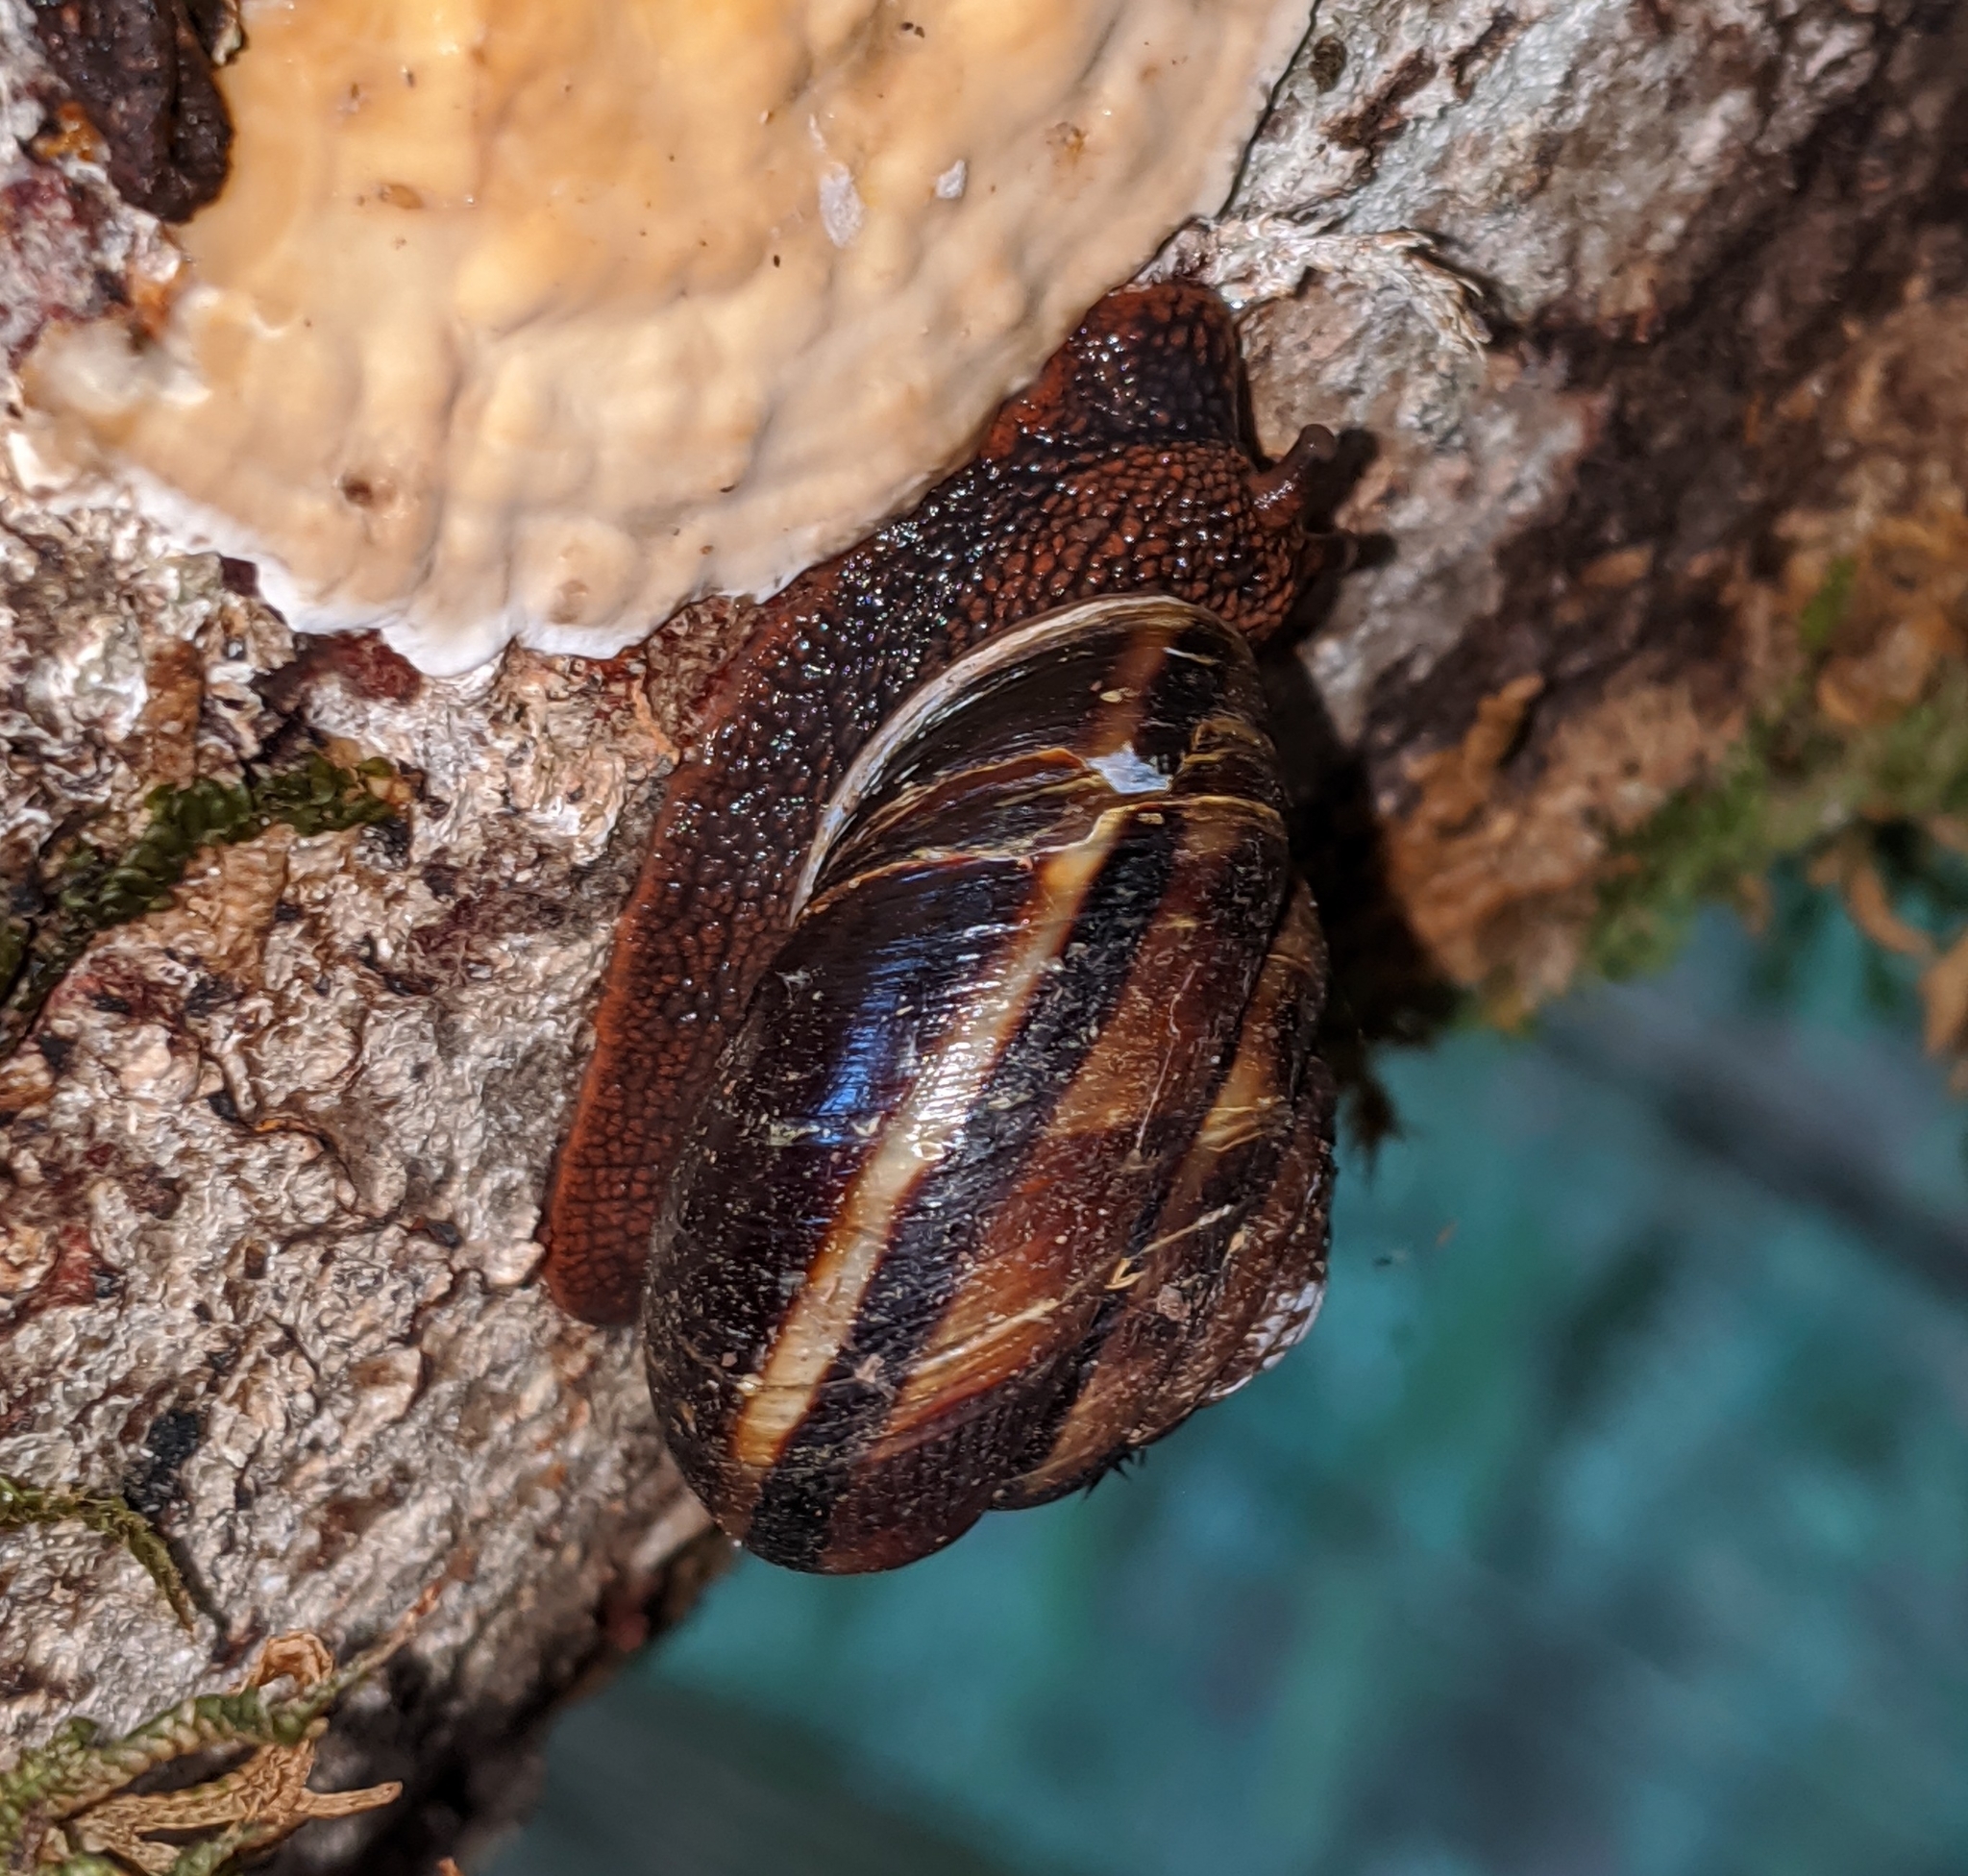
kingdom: Animalia
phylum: Mollusca
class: Gastropoda
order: Stylommatophora
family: Xanthonychidae
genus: Monadenia
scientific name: Monadenia fidelis
